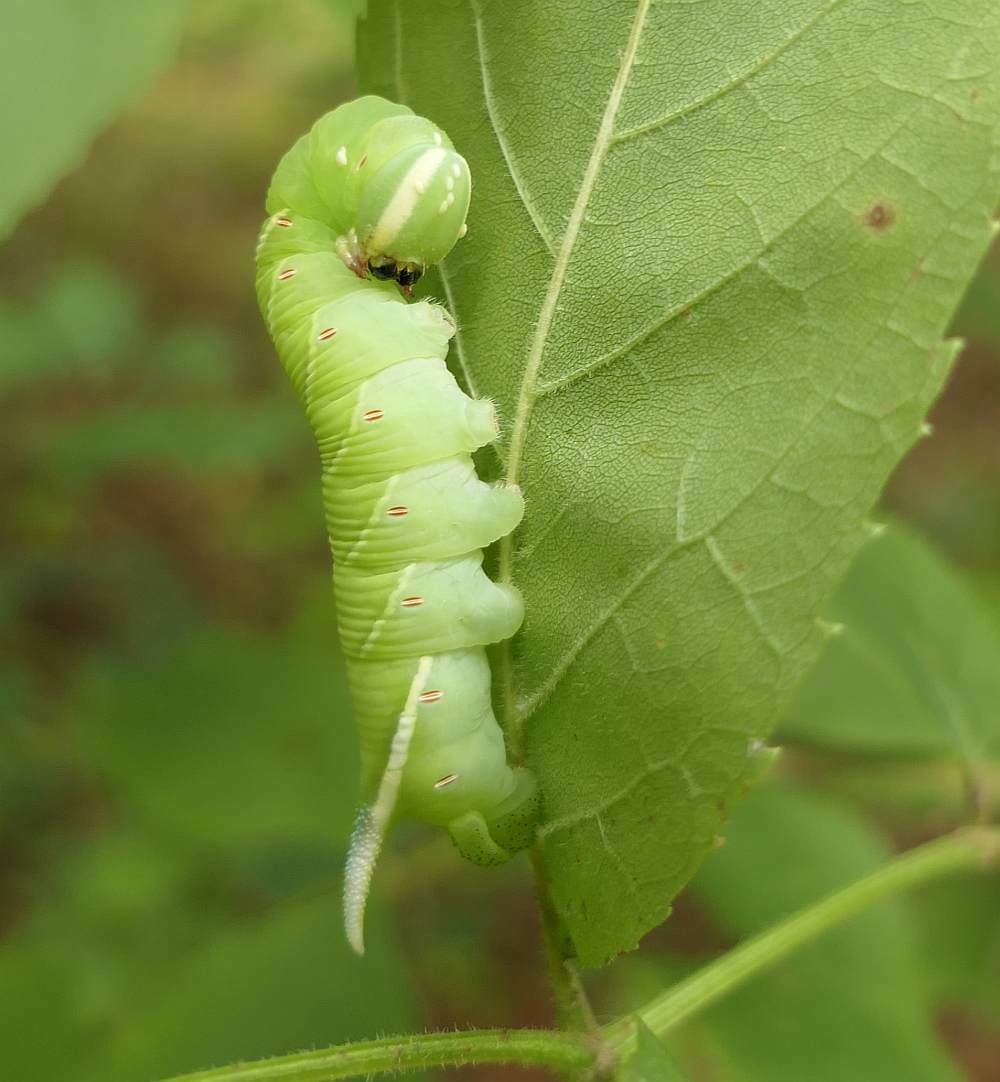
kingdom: Animalia
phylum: Arthropoda
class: Insecta
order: Lepidoptera
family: Sphingidae
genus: Ceratomia
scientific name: Ceratomia undulosa
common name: Waved sphinx
